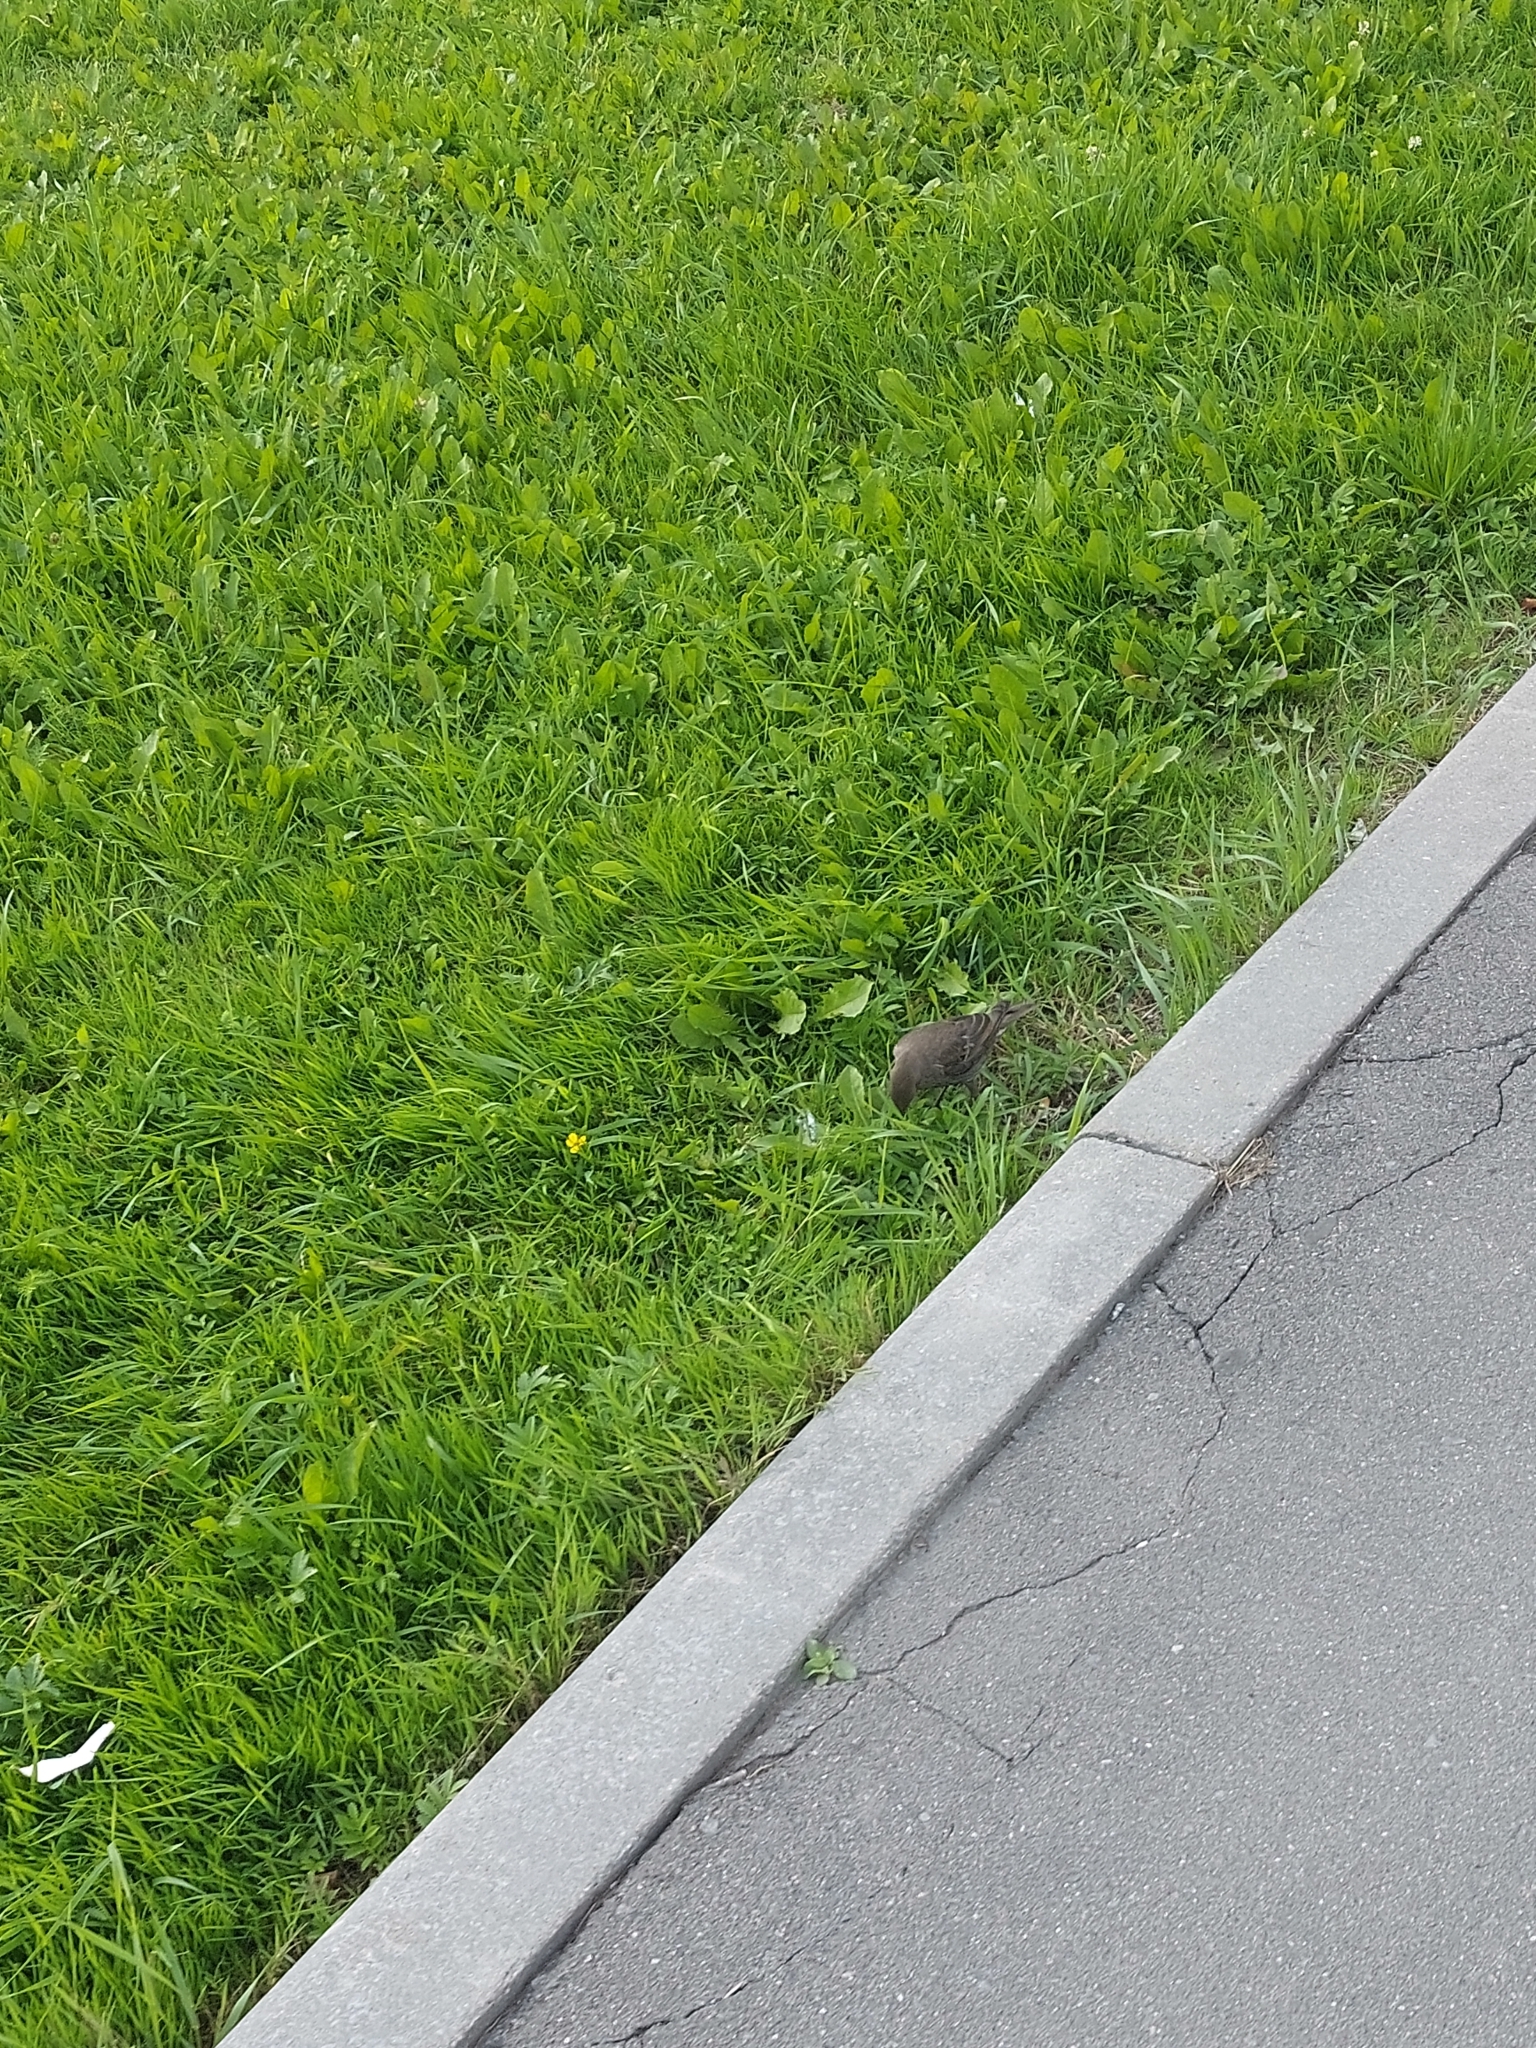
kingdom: Animalia
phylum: Chordata
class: Aves
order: Passeriformes
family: Sturnidae
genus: Sturnus
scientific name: Sturnus vulgaris
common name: Common starling
